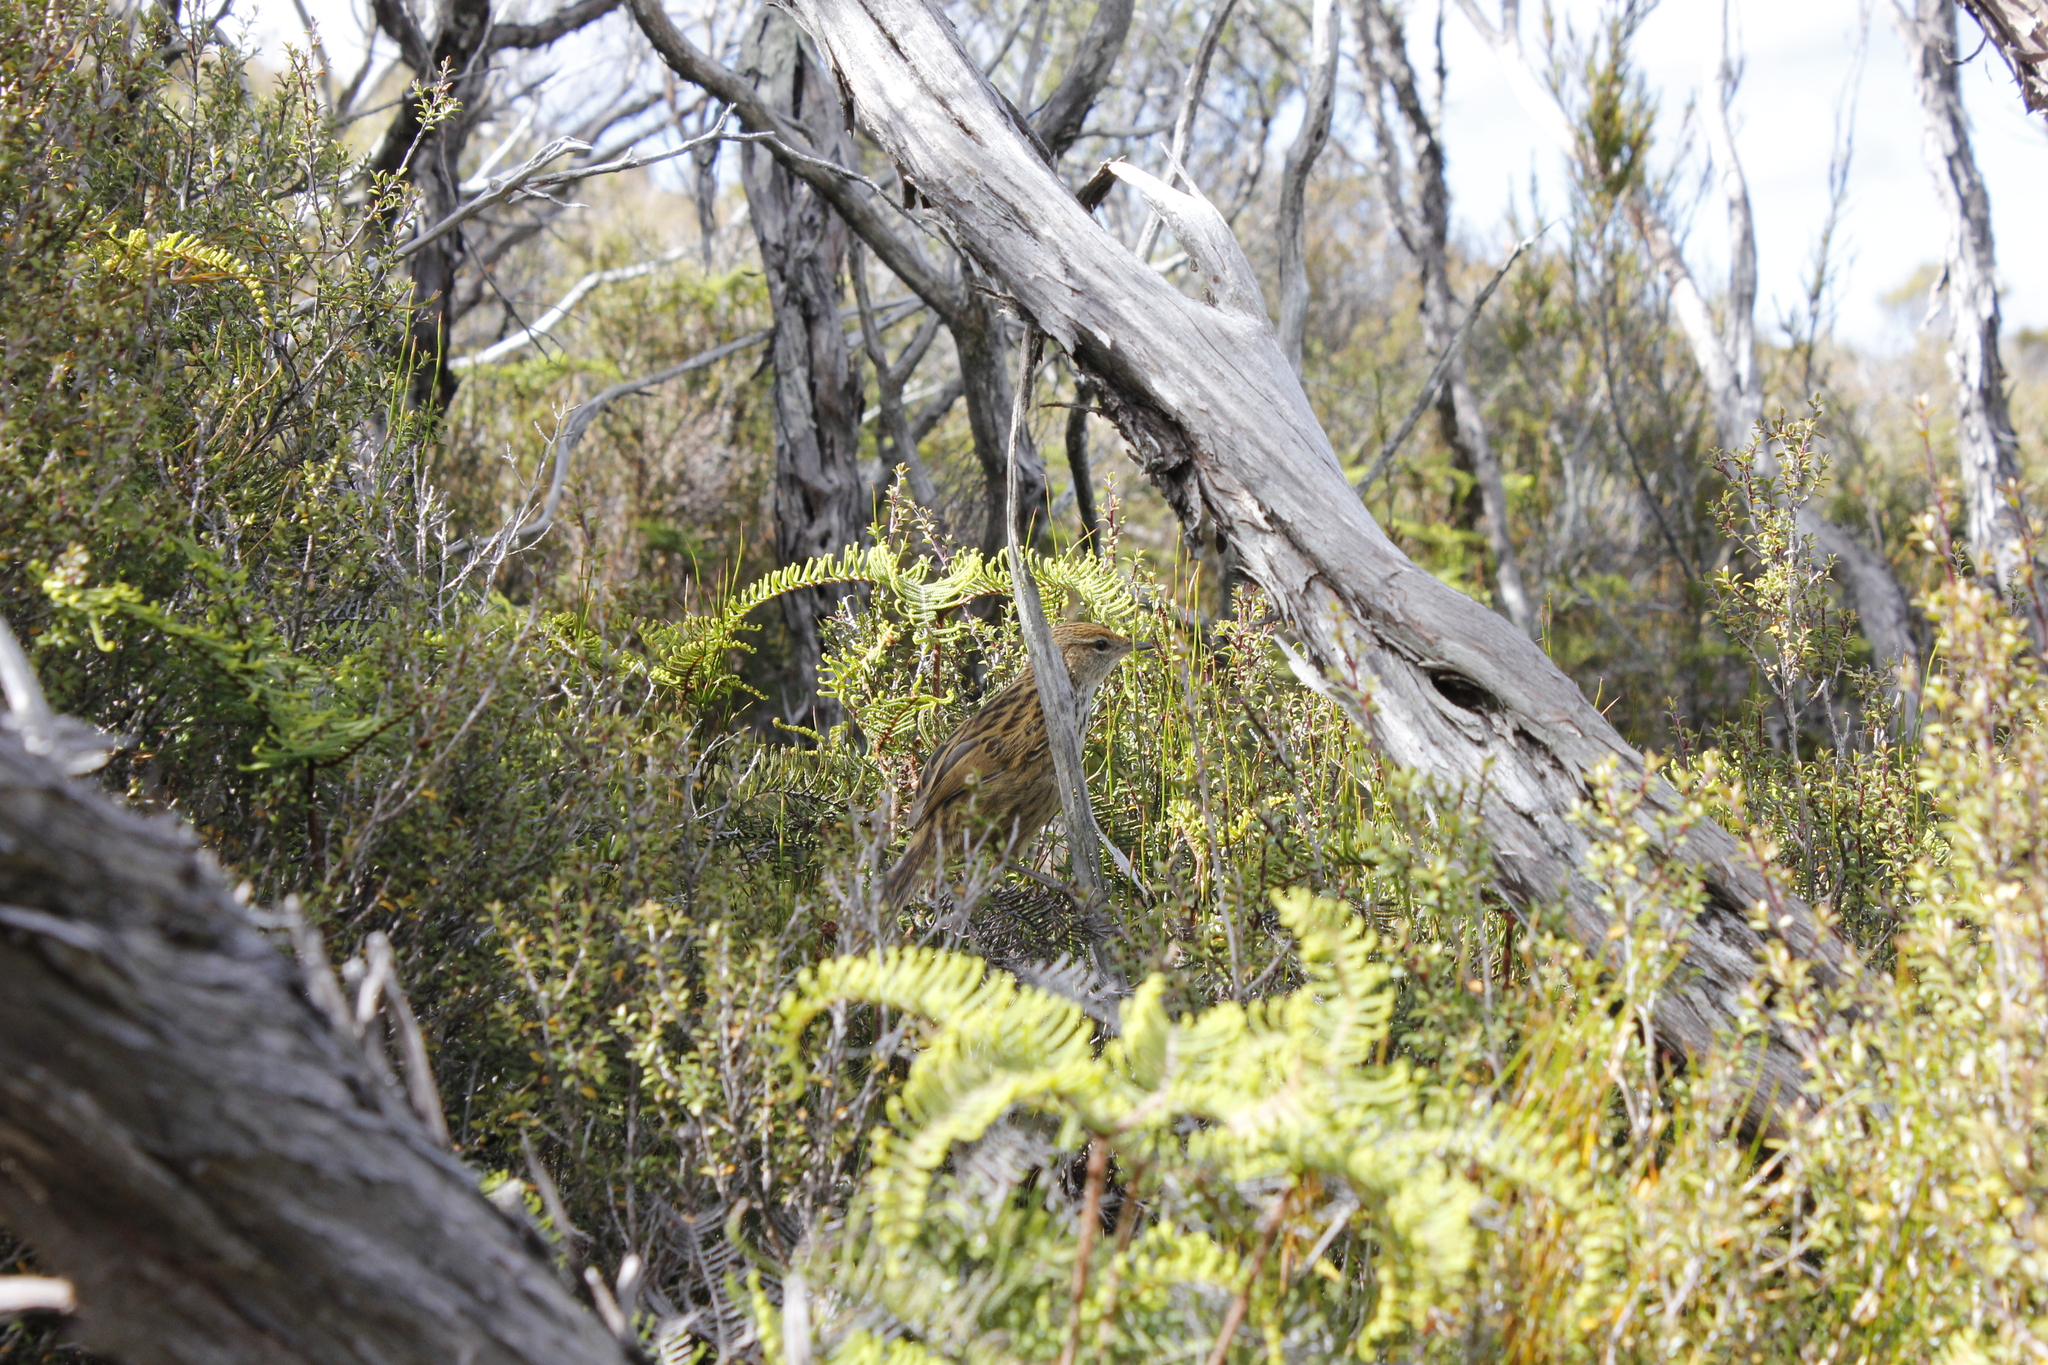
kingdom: Animalia
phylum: Chordata
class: Aves
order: Passeriformes
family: Locustellidae
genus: Poodytes
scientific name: Poodytes punctatus
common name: New zealand fernbird
